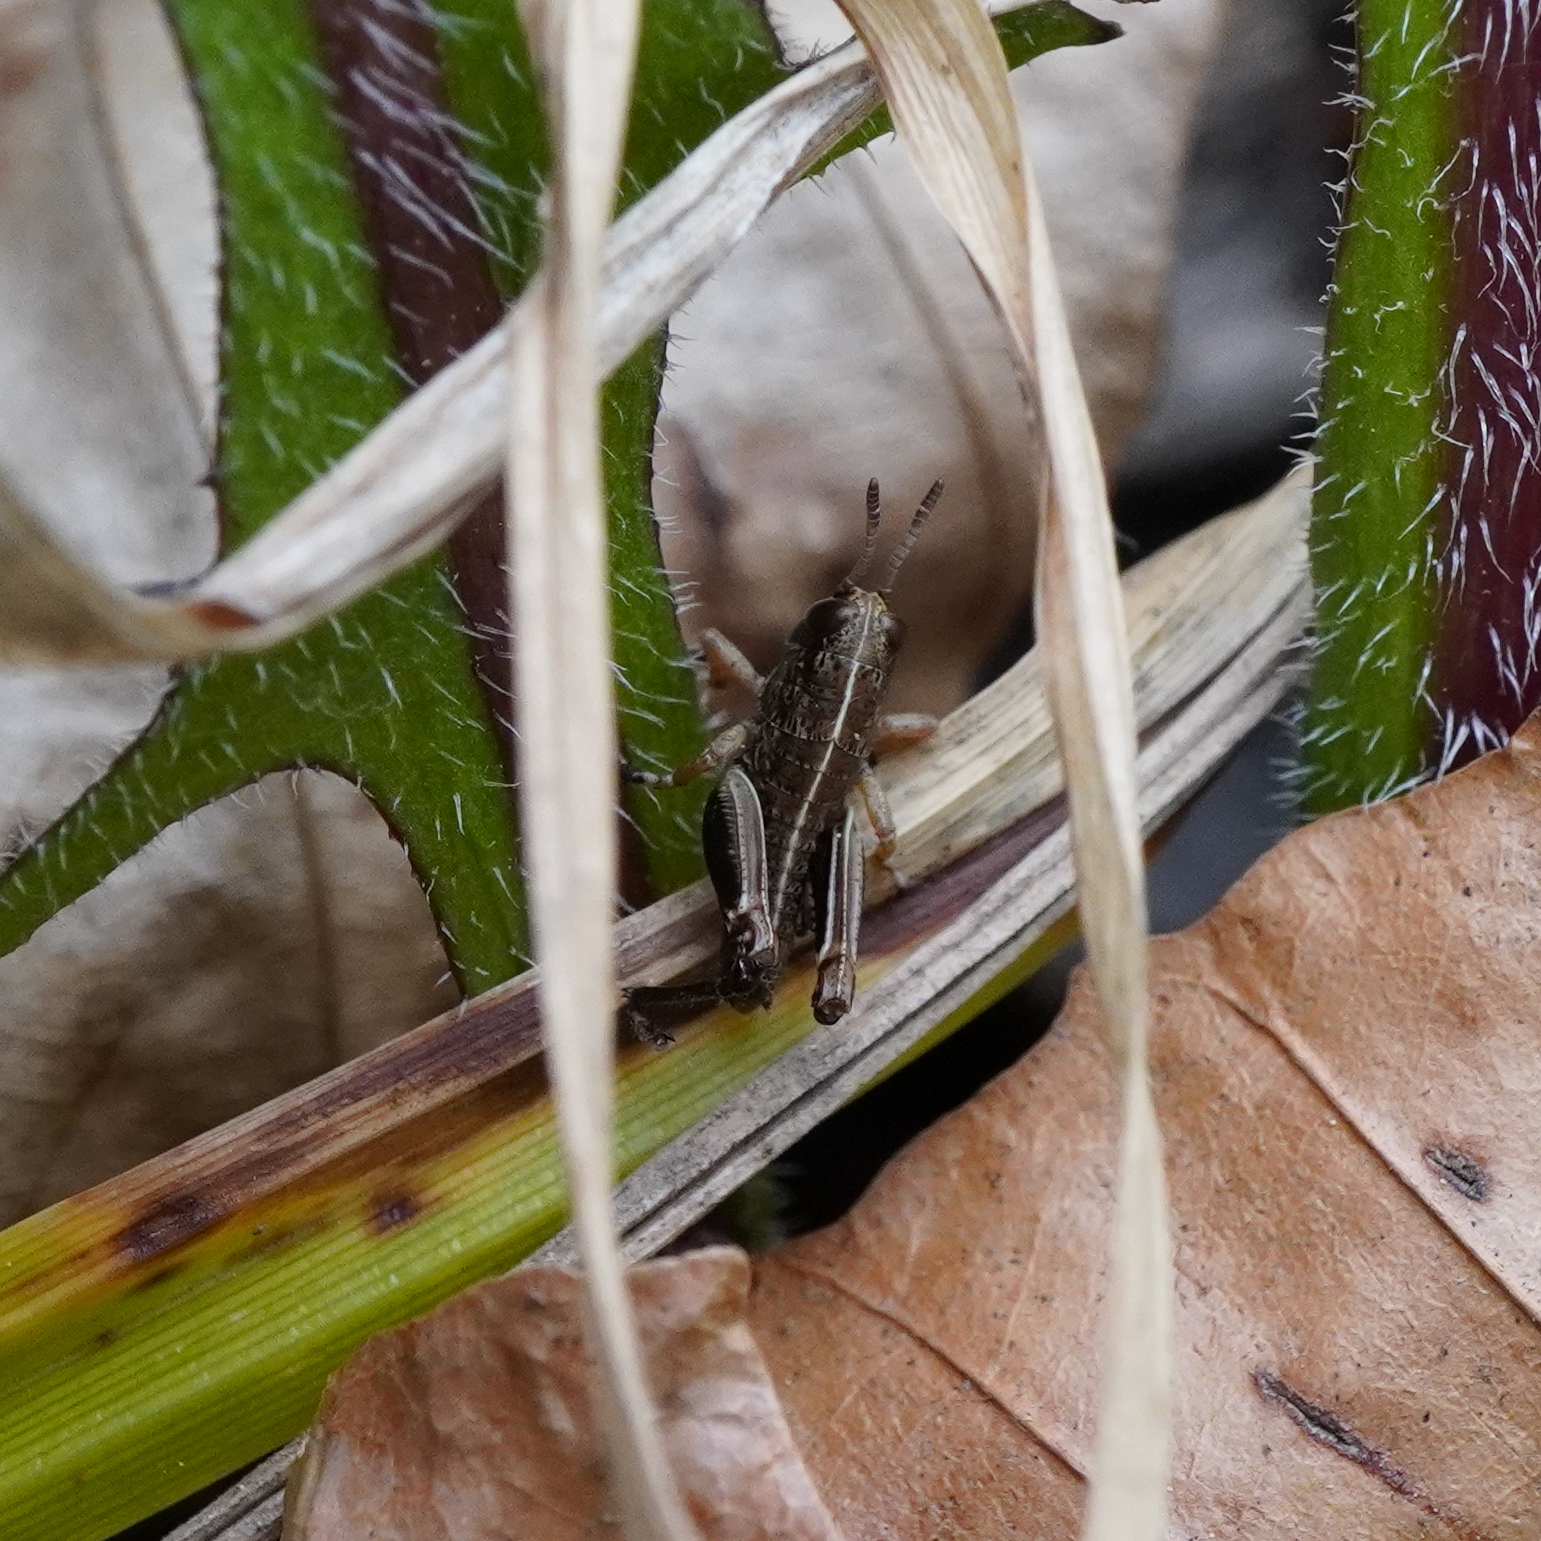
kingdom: Animalia
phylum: Arthropoda
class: Insecta
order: Orthoptera
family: Acrididae
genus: Miramella
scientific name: Miramella alpina
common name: Green mountain grasshopper
